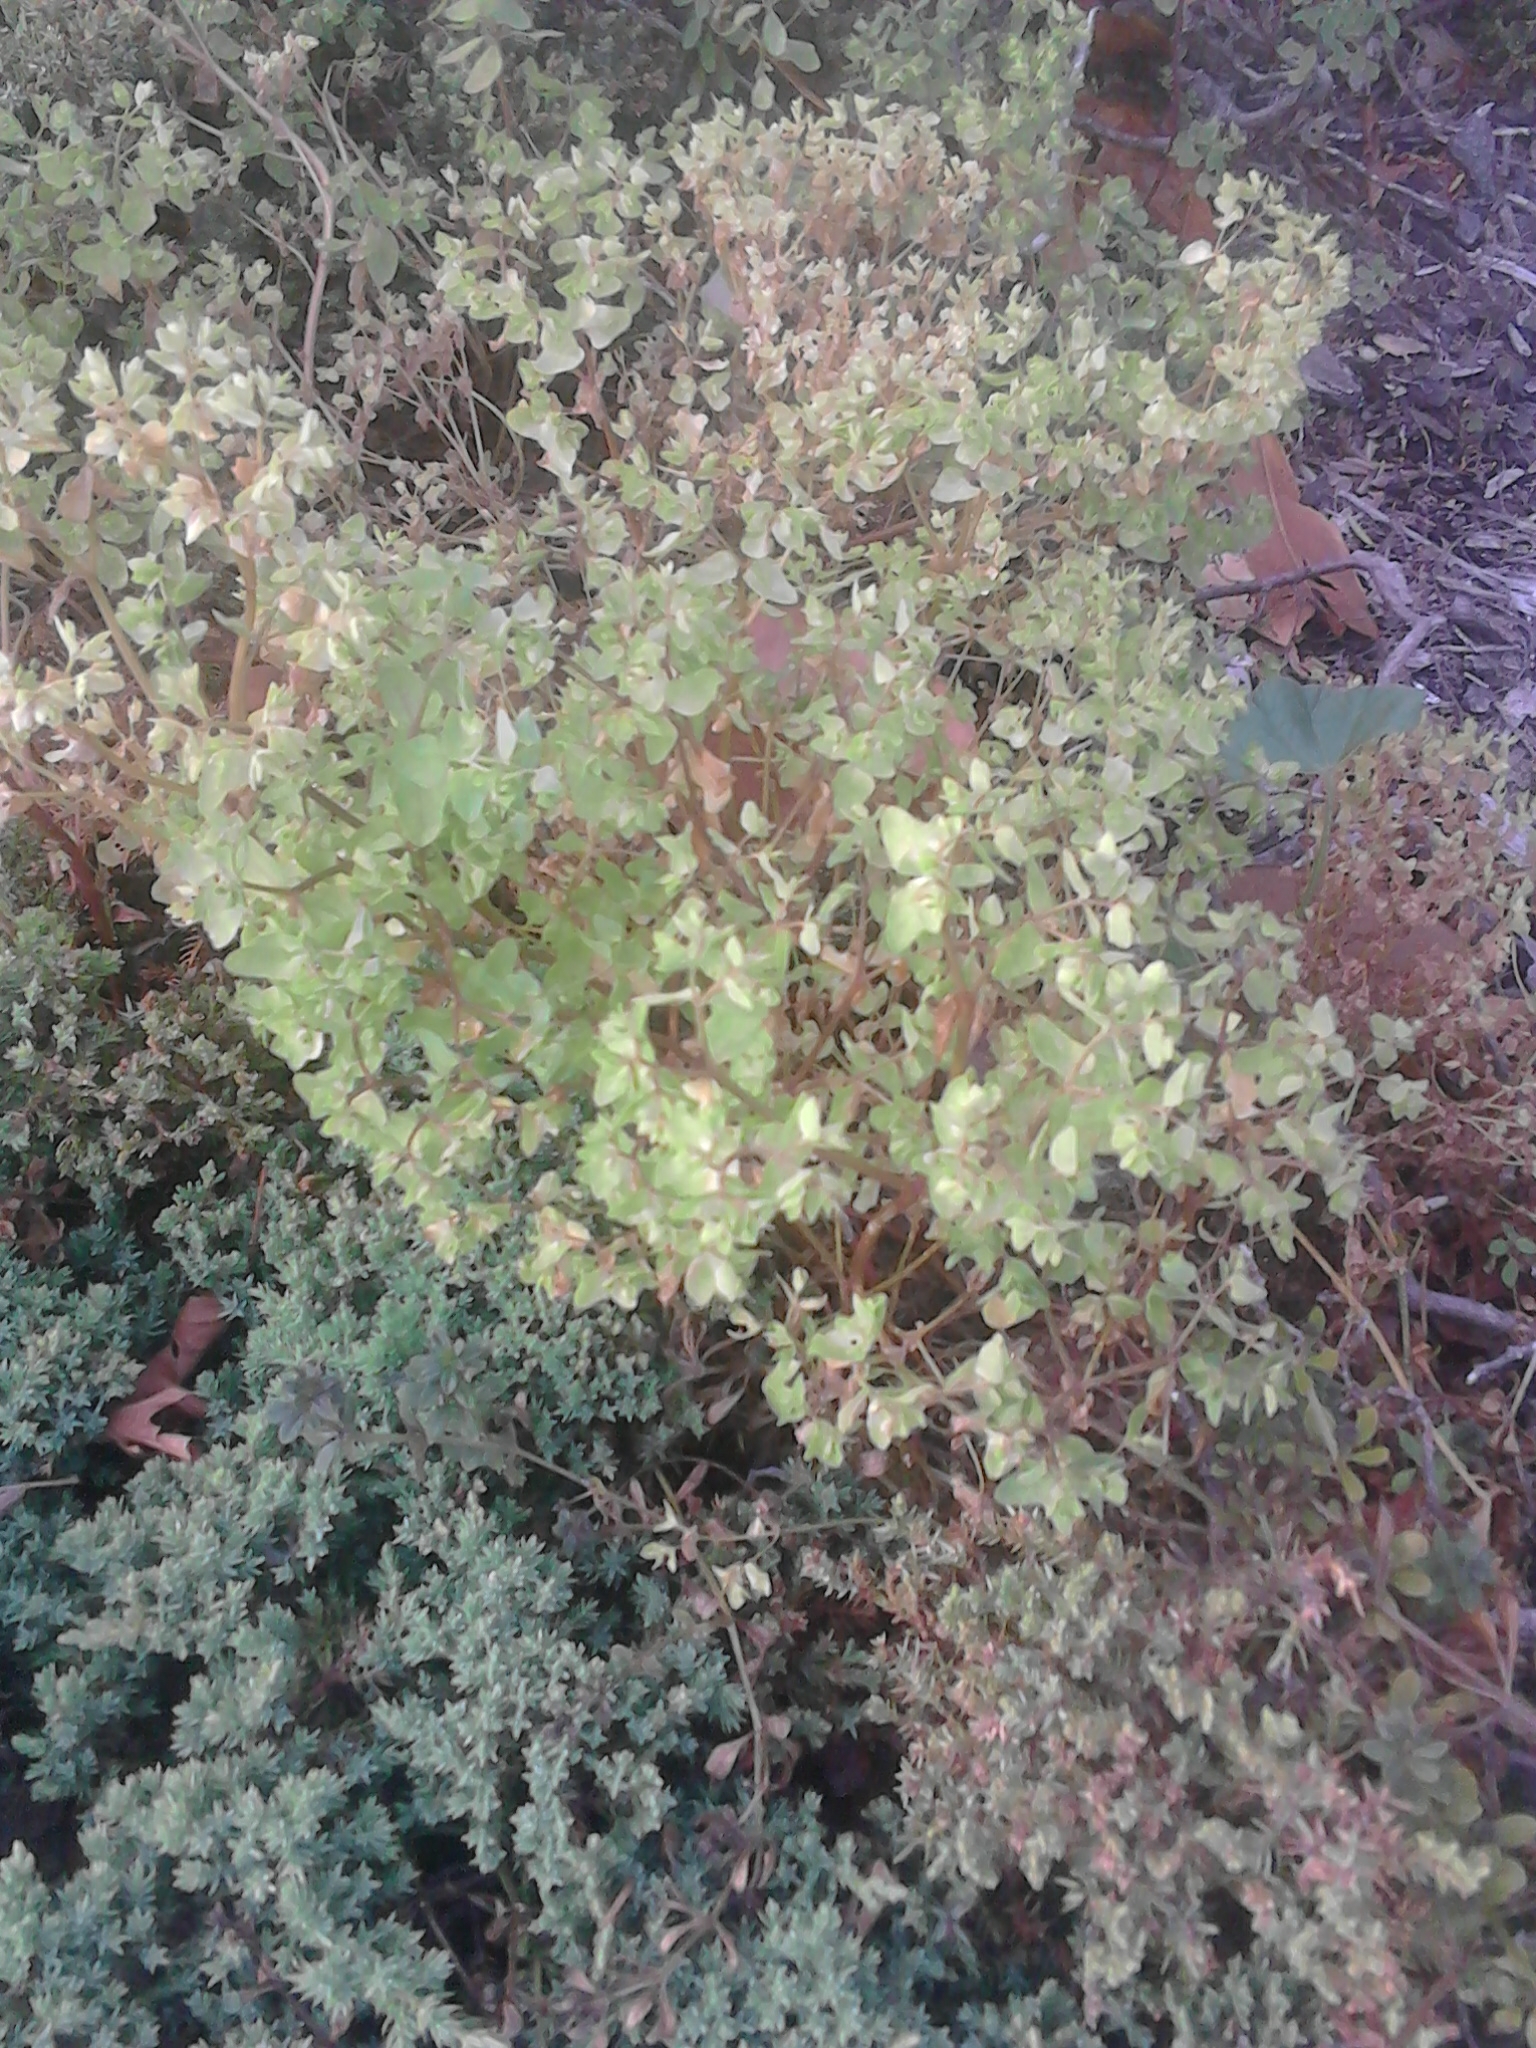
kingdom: Plantae
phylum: Tracheophyta
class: Magnoliopsida
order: Malpighiales
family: Euphorbiaceae
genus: Euphorbia
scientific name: Euphorbia peplus
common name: Petty spurge
